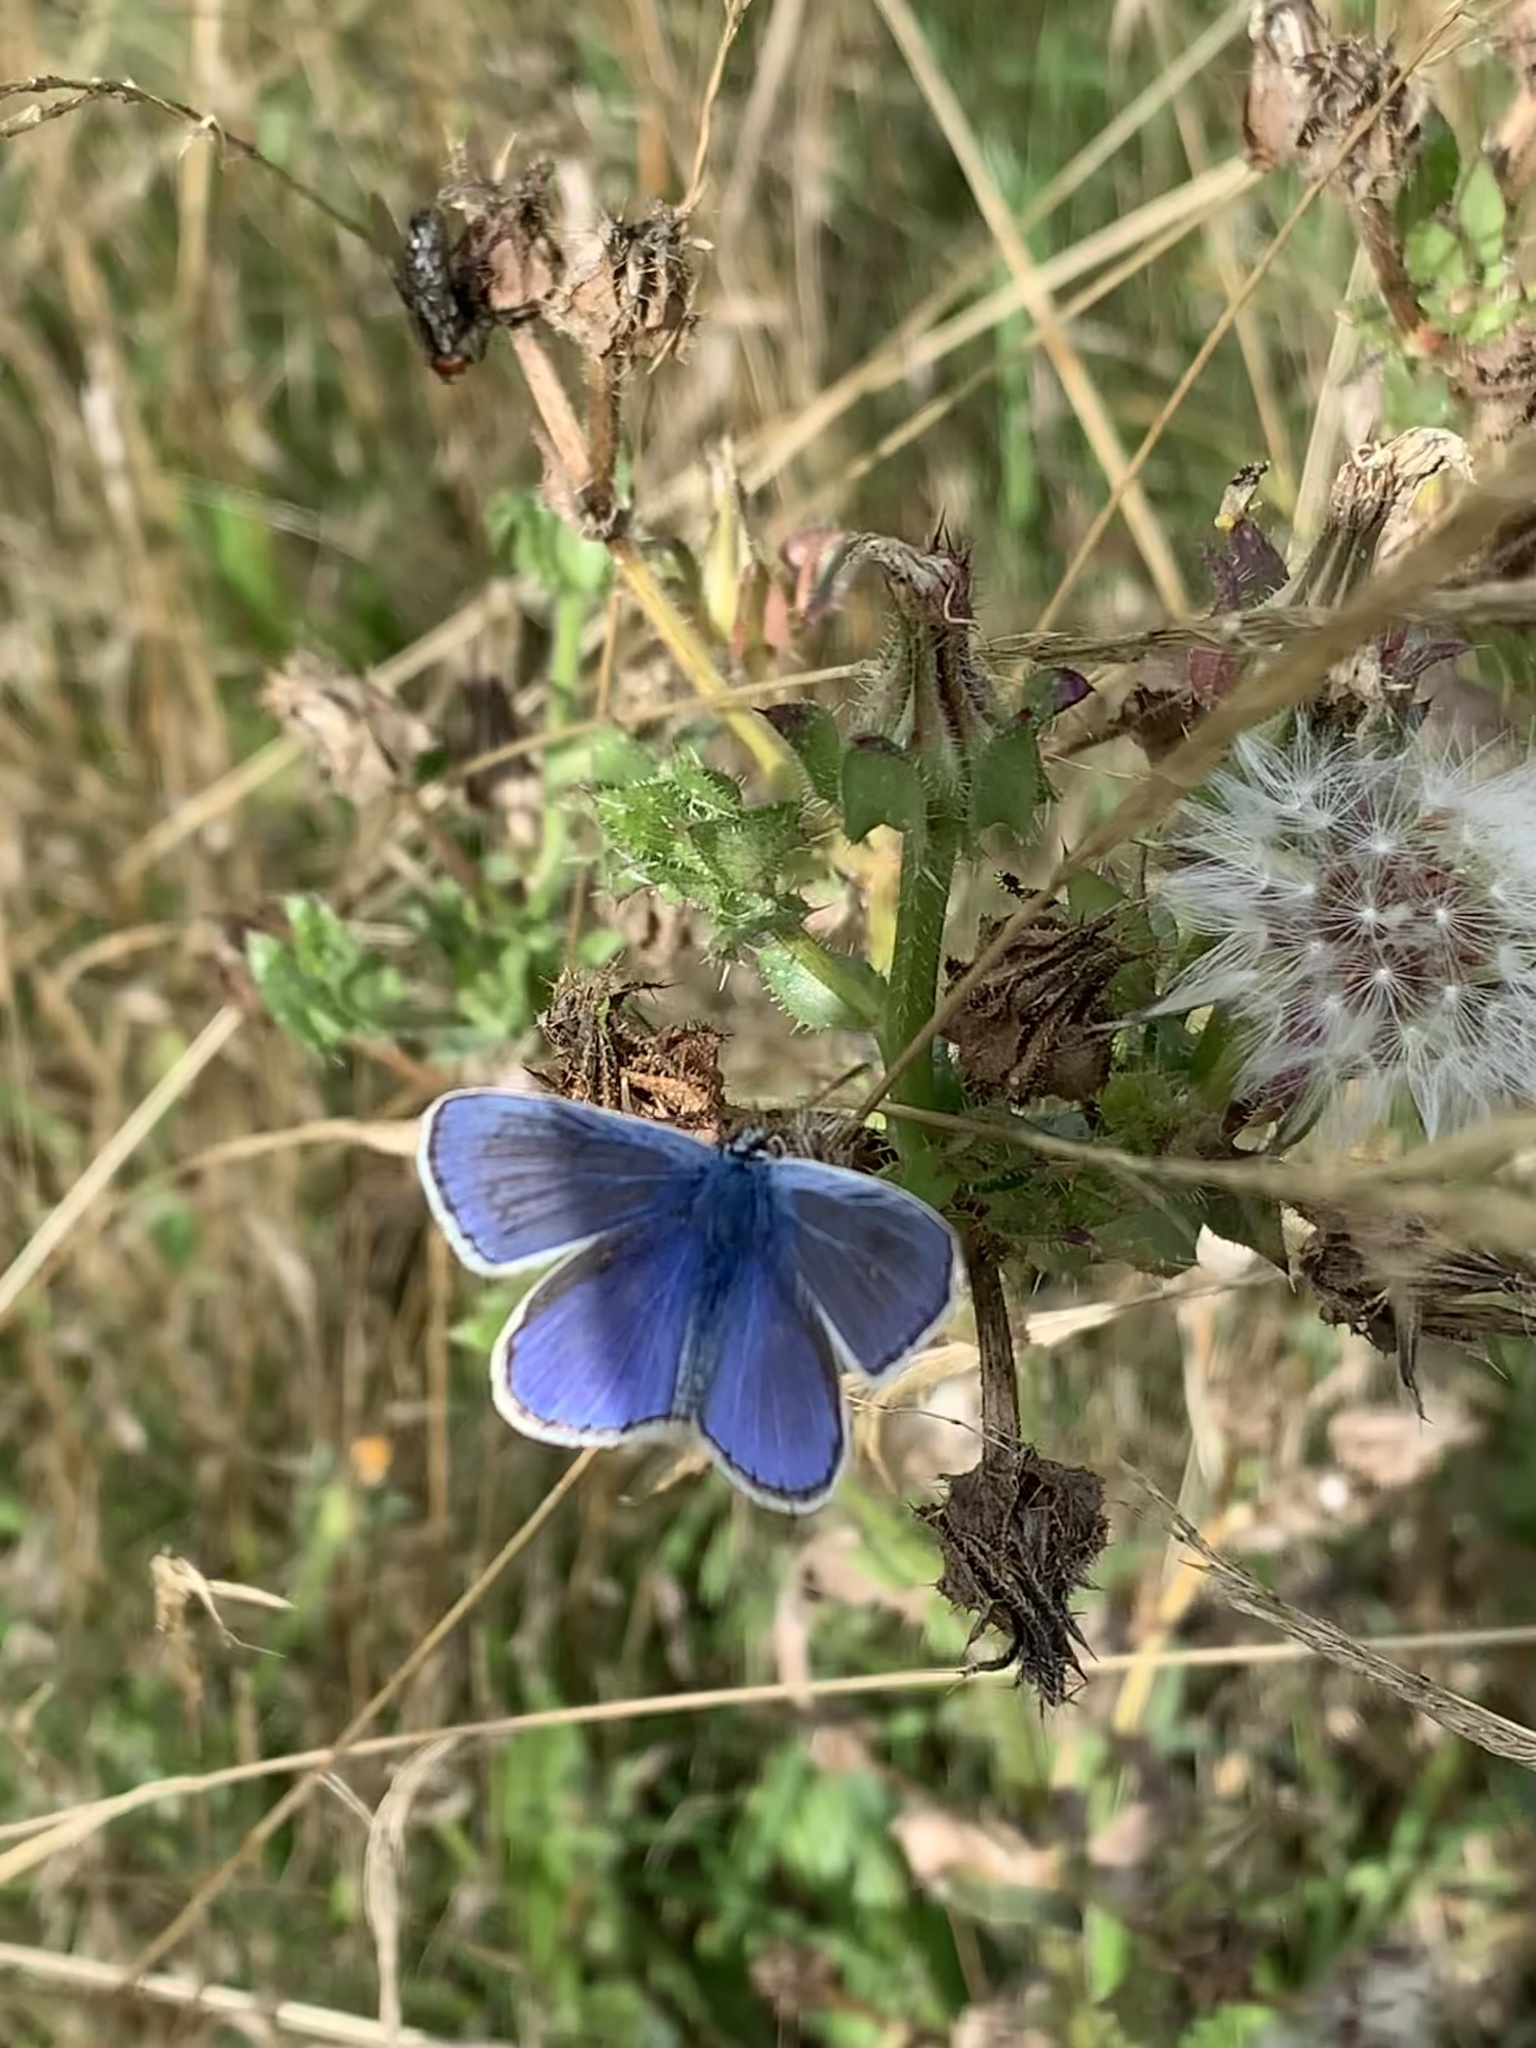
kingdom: Animalia
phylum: Arthropoda
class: Insecta
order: Lepidoptera
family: Lycaenidae
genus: Polyommatus
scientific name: Polyommatus icarus
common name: Common blue
